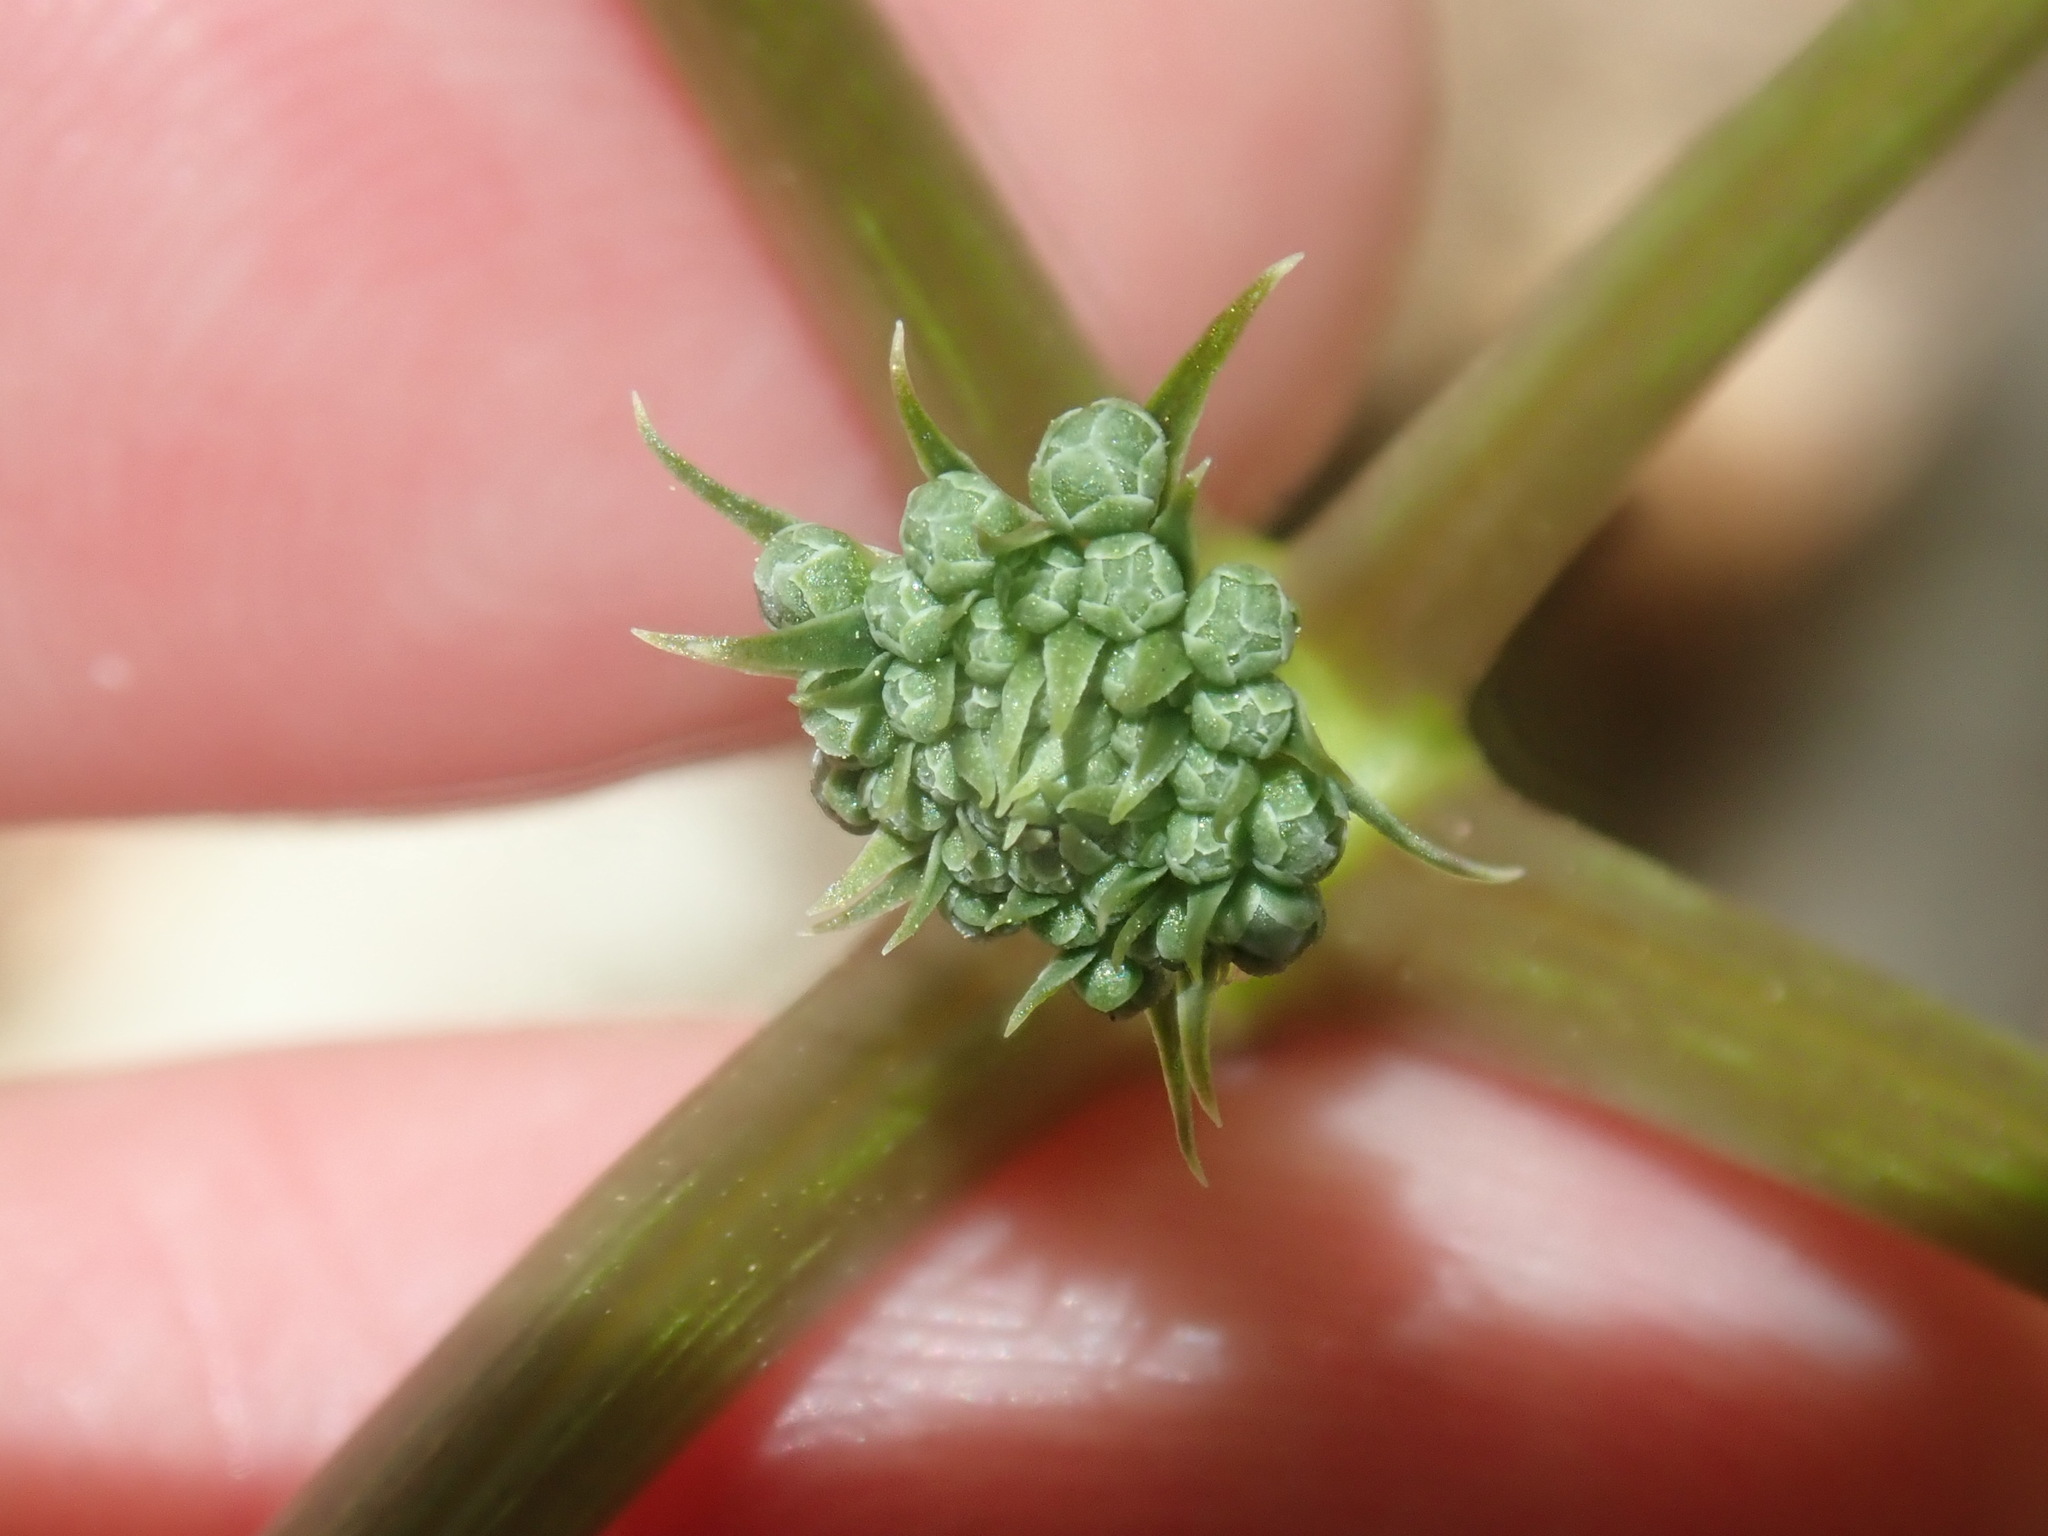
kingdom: Plantae
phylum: Tracheophyta
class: Magnoliopsida
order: Apiales
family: Araliaceae
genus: Panax
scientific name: Panax quinquefolius
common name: American ginseng
